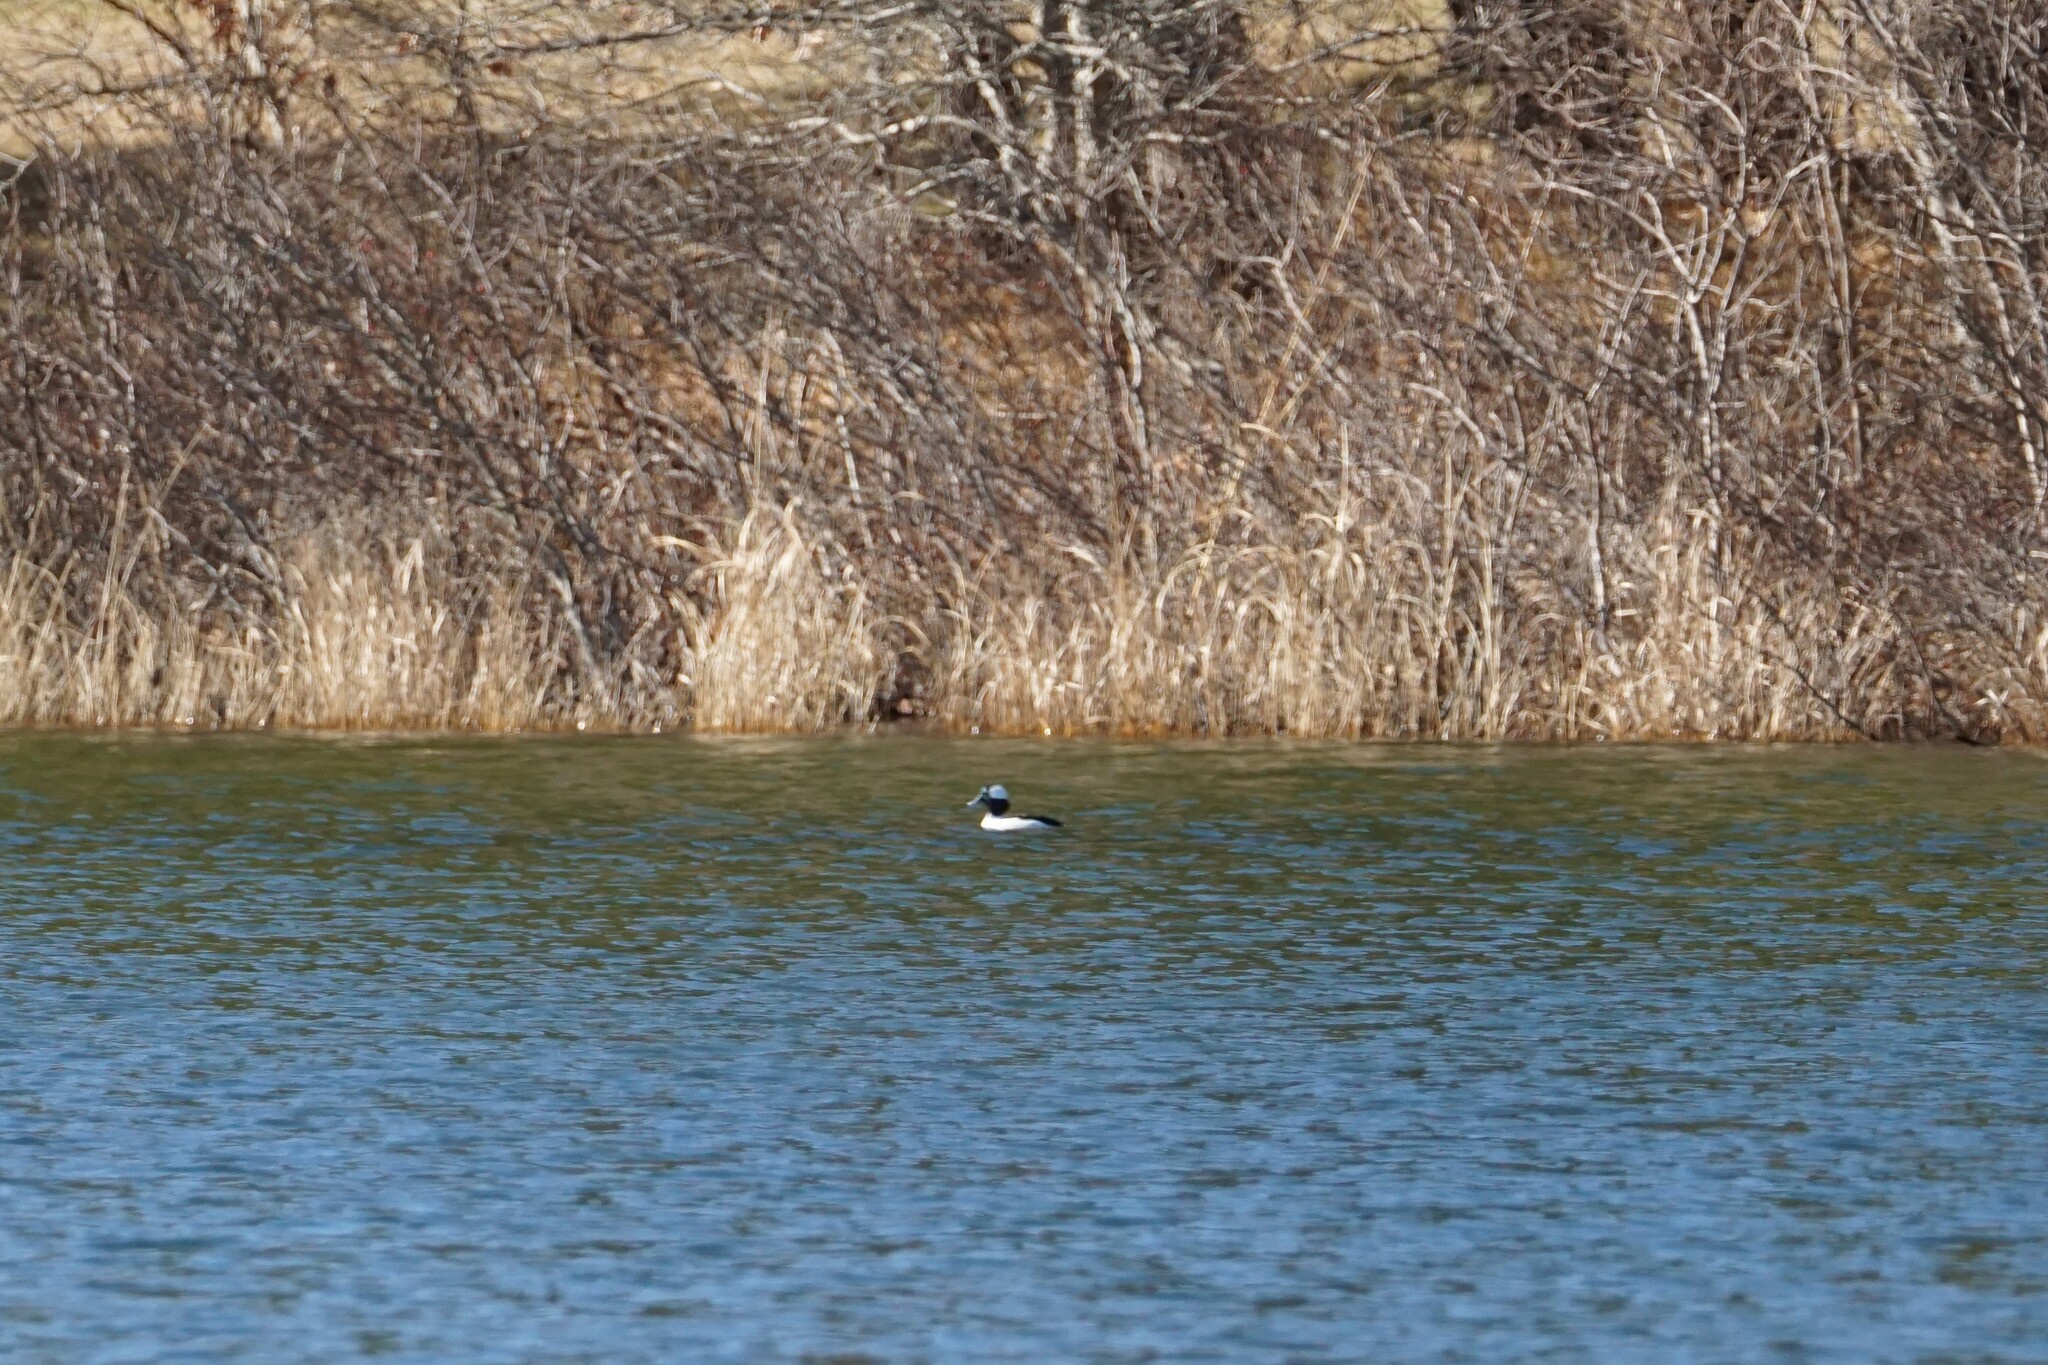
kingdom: Animalia
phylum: Chordata
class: Aves
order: Anseriformes
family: Anatidae
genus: Bucephala
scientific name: Bucephala albeola
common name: Bufflehead
